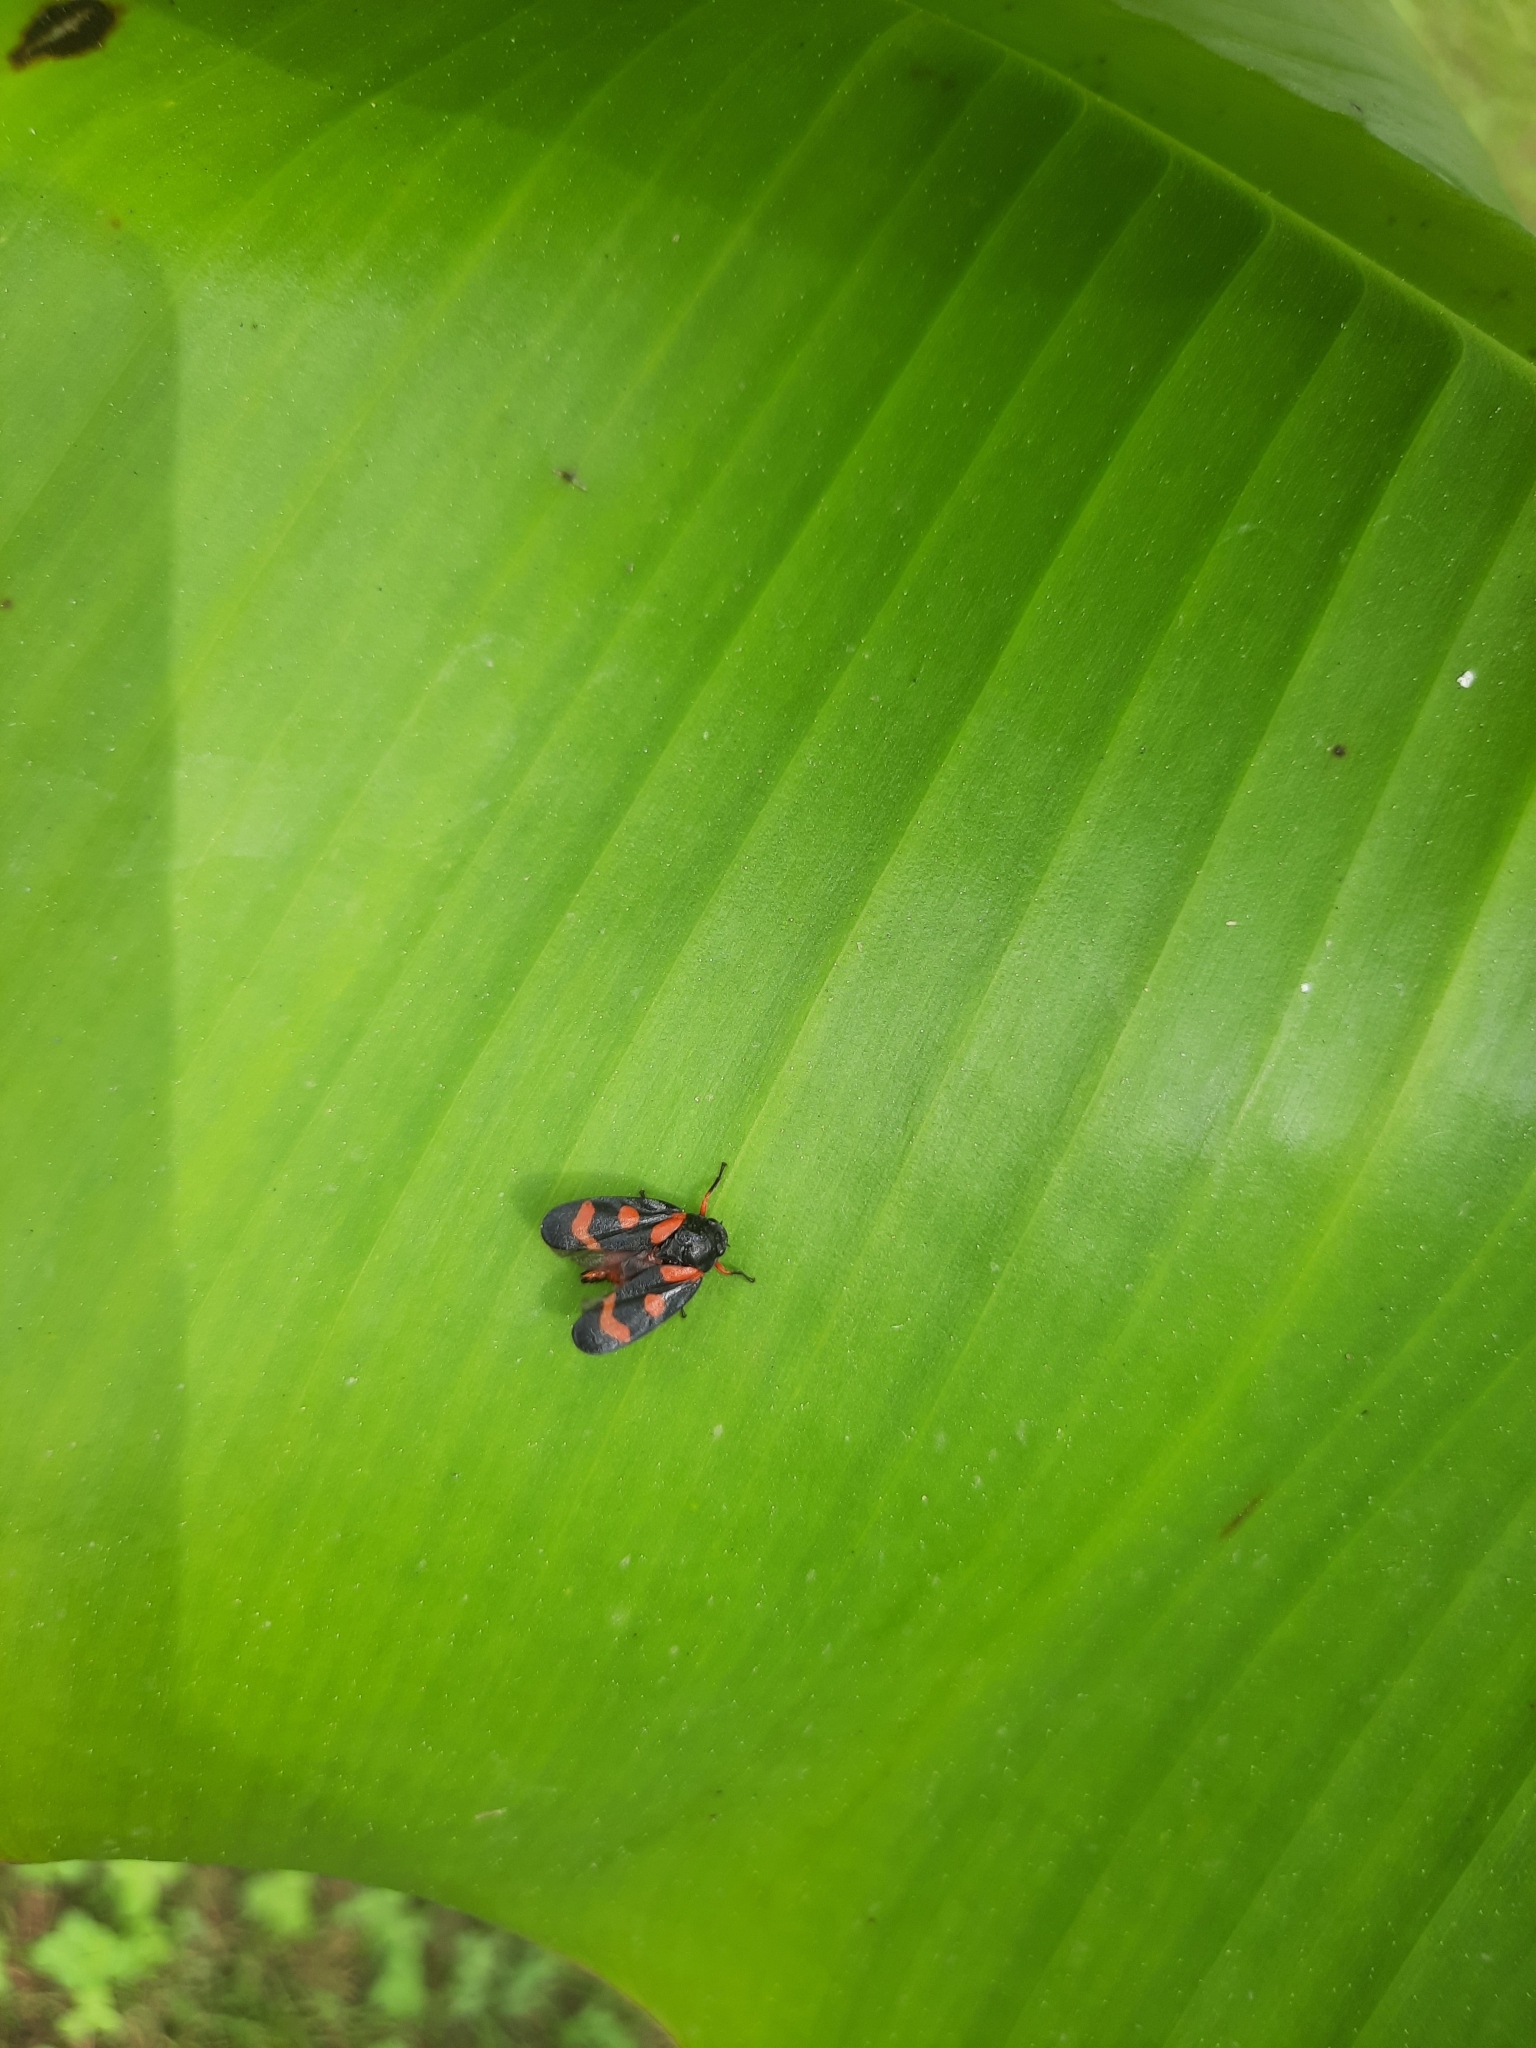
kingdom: Animalia
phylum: Arthropoda
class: Insecta
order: Hemiptera
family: Cercopidae
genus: Cercopis
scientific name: Cercopis intermedia
